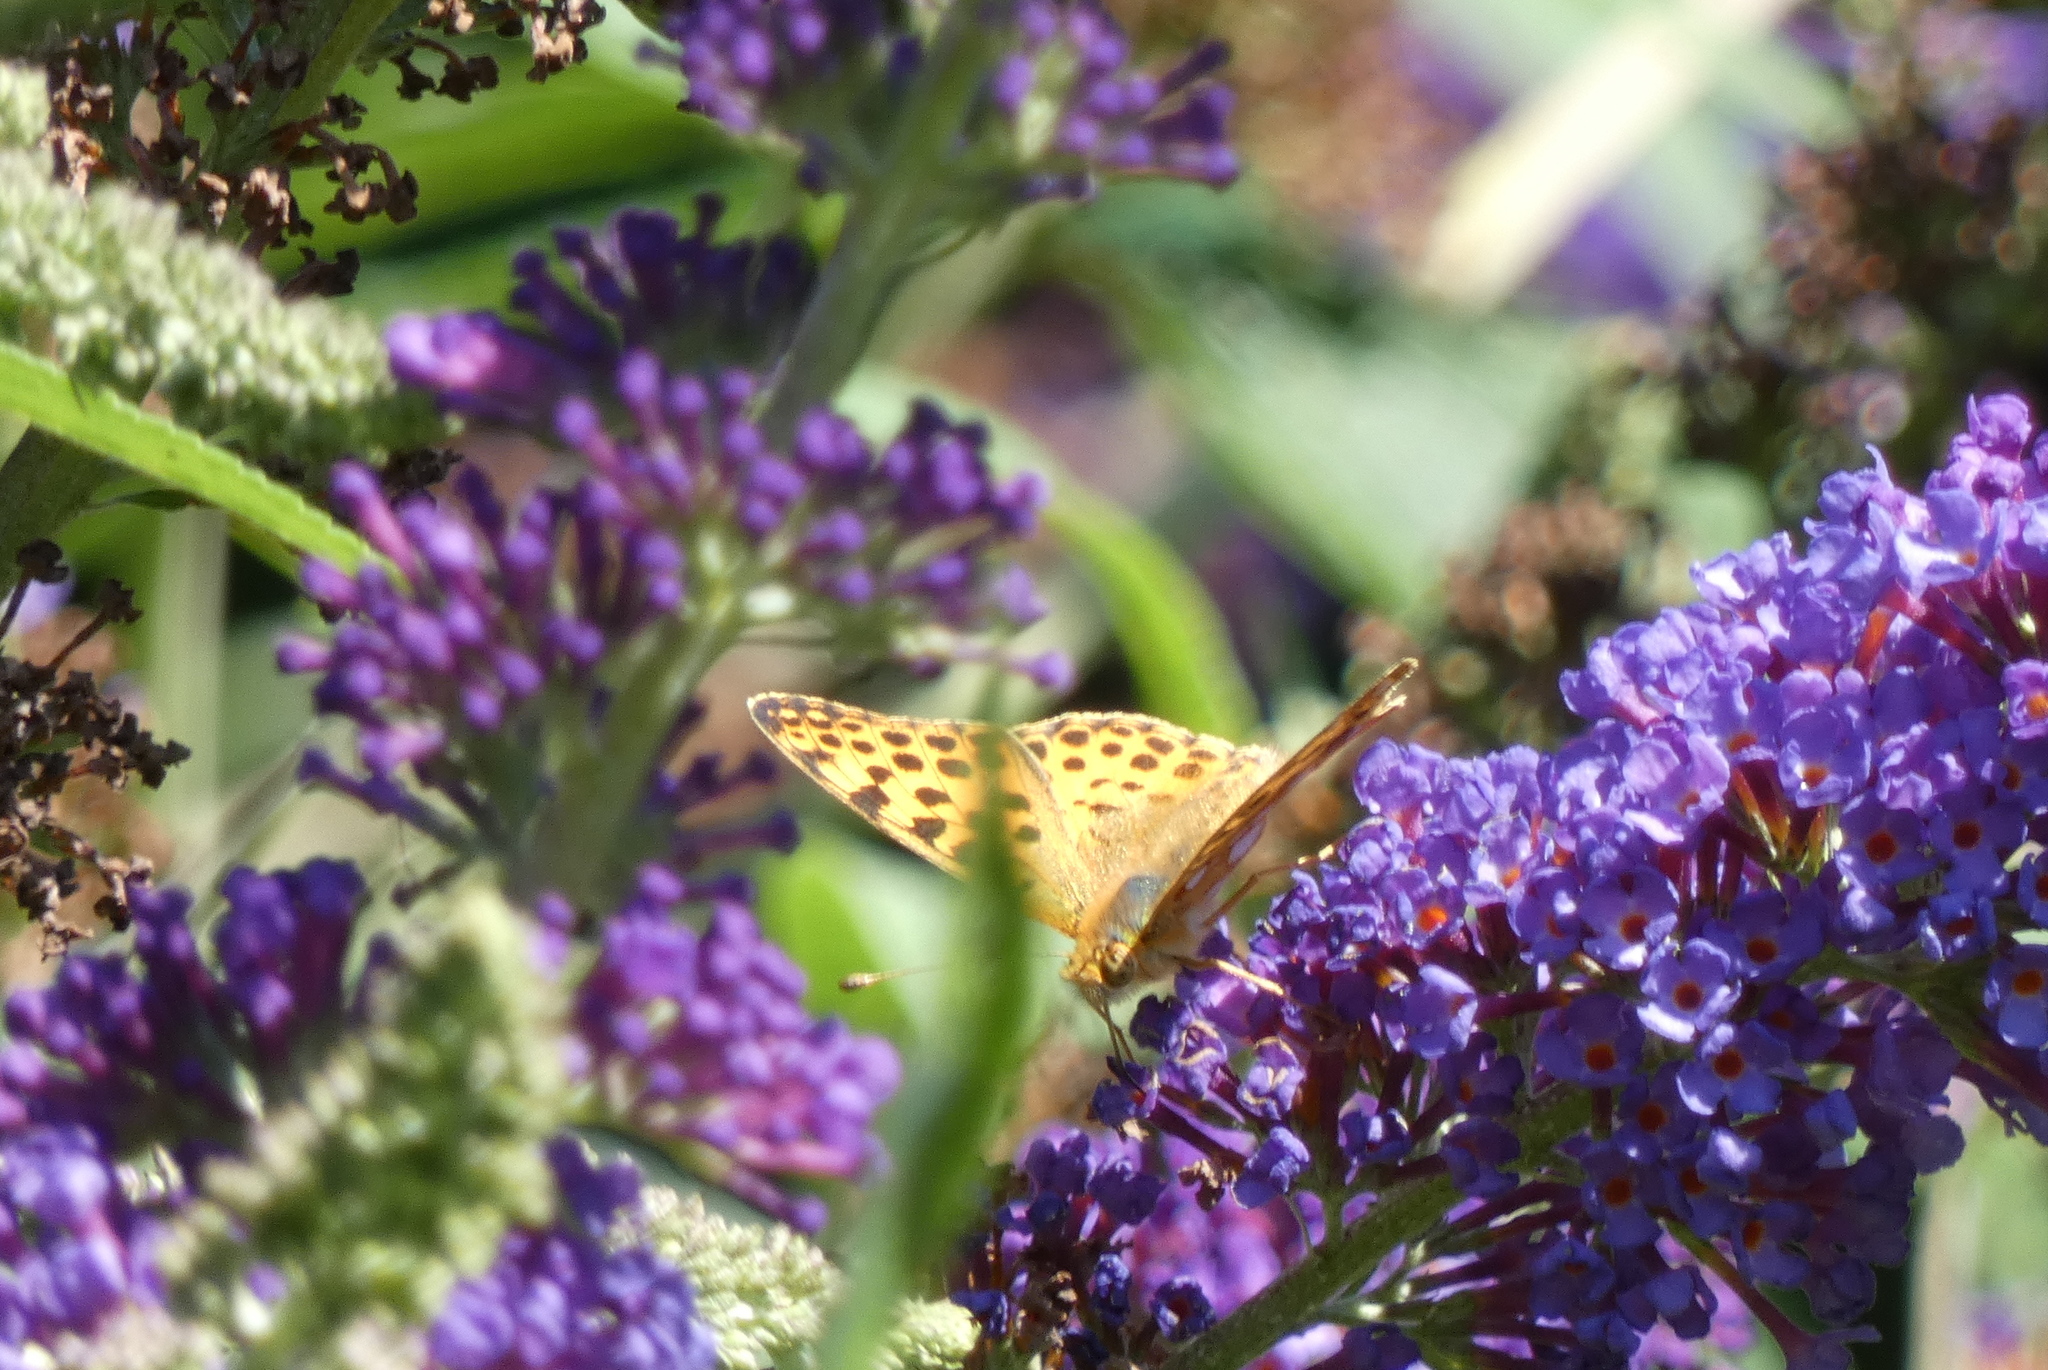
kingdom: Animalia
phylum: Arthropoda
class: Insecta
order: Lepidoptera
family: Nymphalidae
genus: Issoria
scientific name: Issoria lathonia
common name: Queen of spain fritillary
